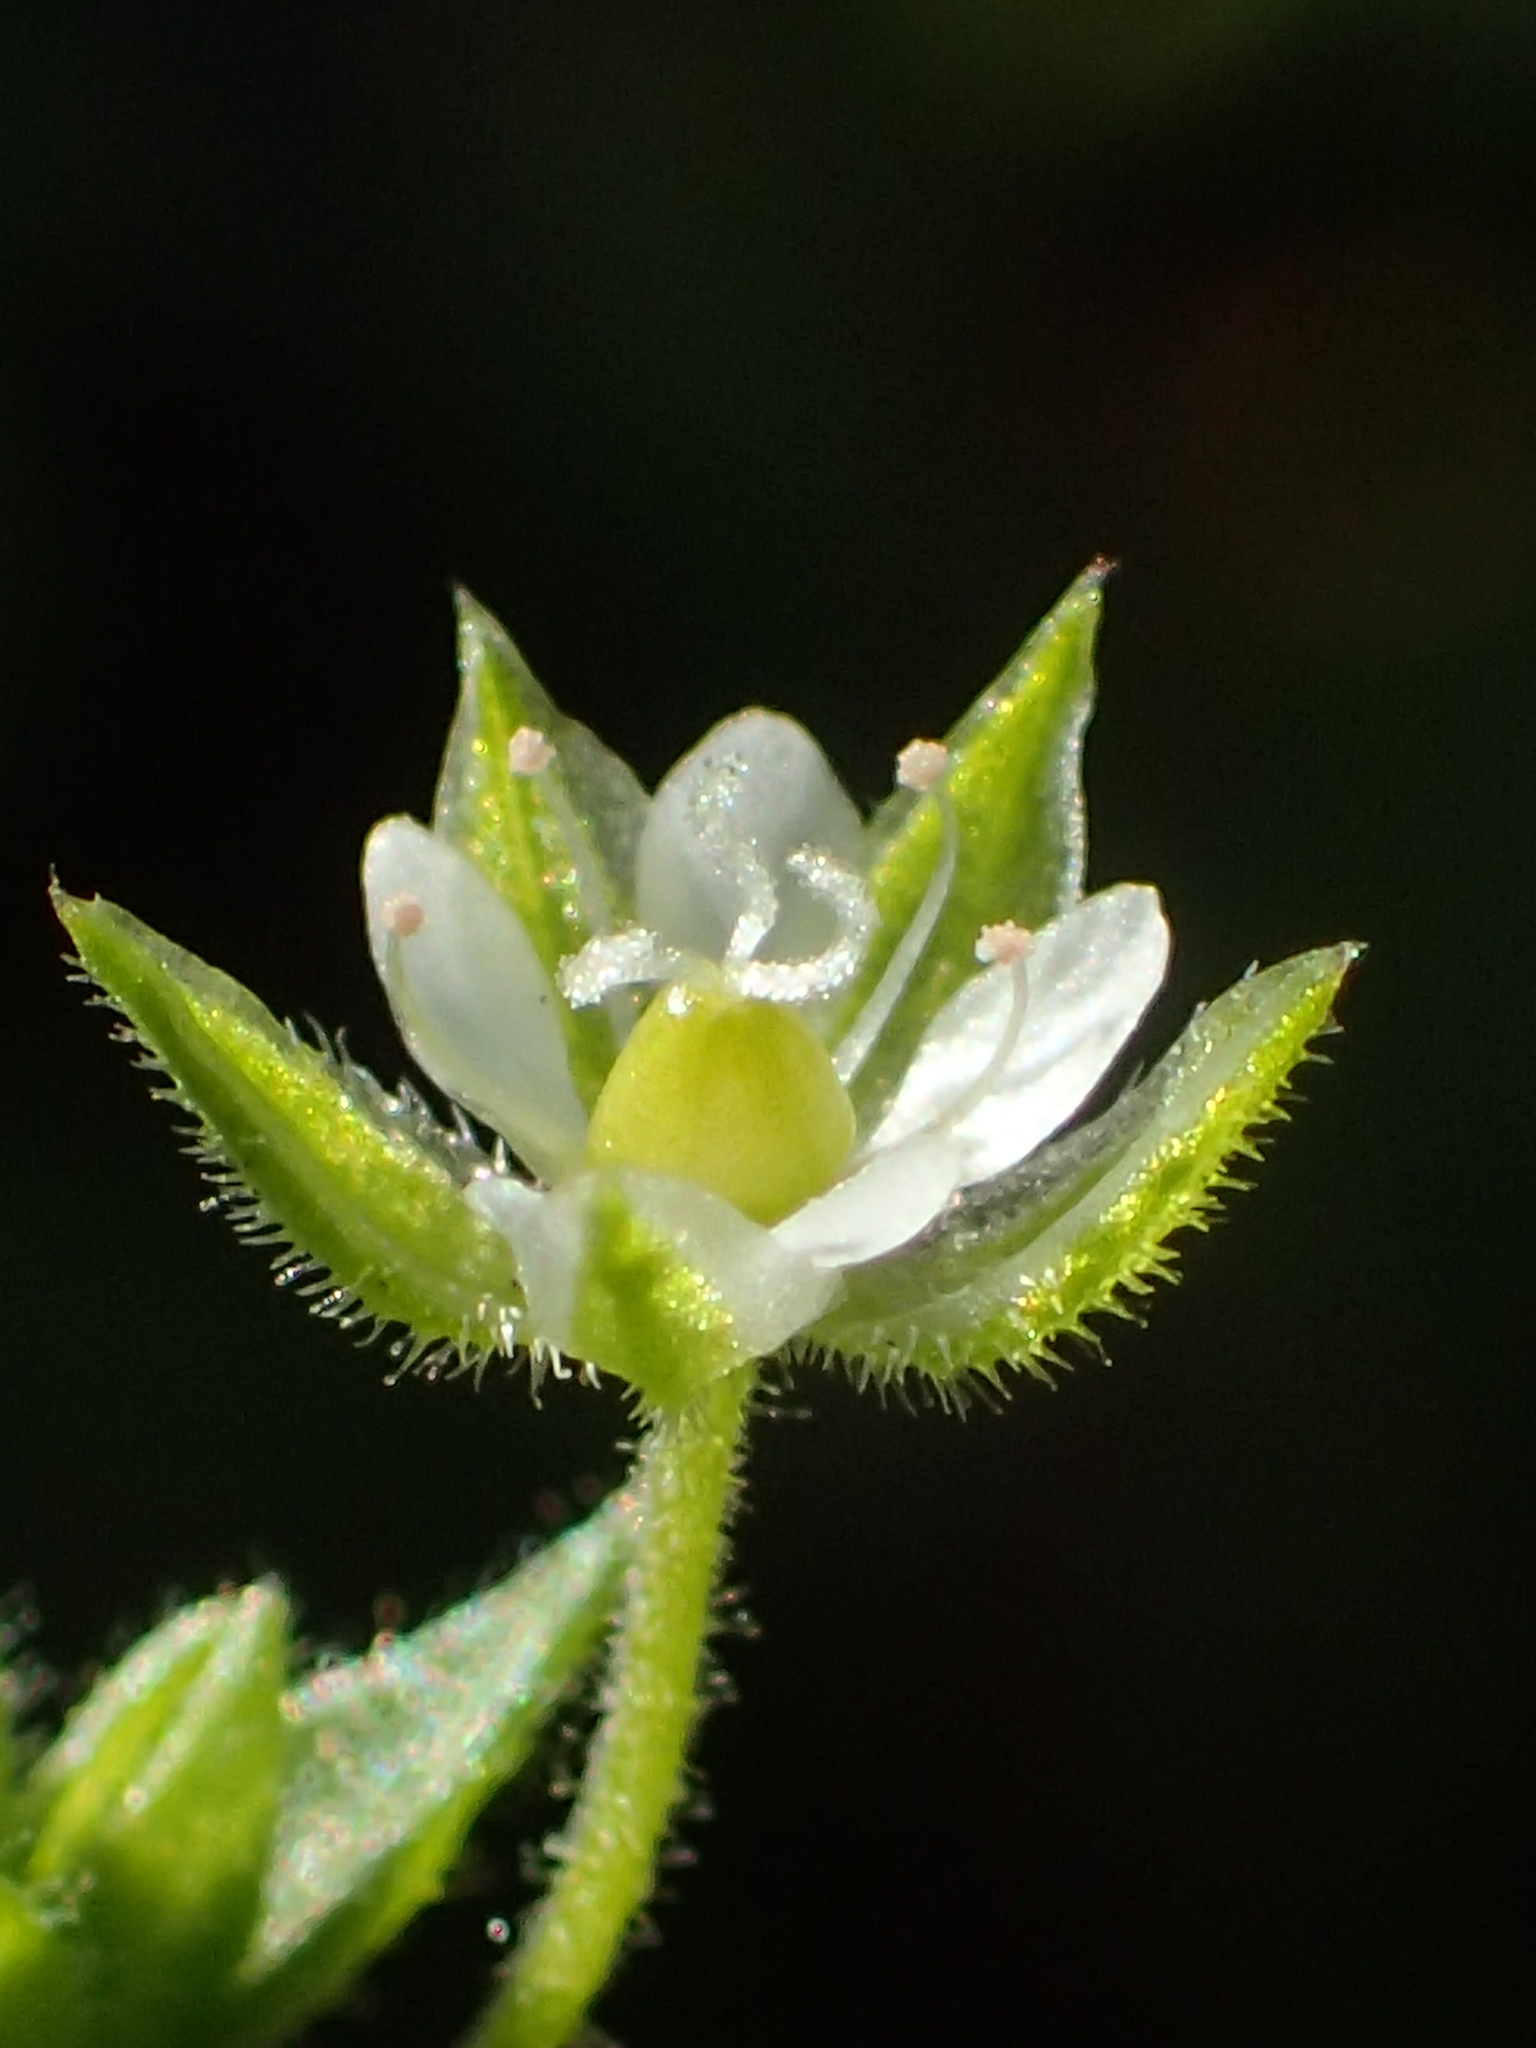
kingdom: Plantae
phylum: Tracheophyta
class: Magnoliopsida
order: Caryophyllales
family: Caryophyllaceae
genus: Arenaria
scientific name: Arenaria serpyllifolia
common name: Thyme-leaved sandwort
